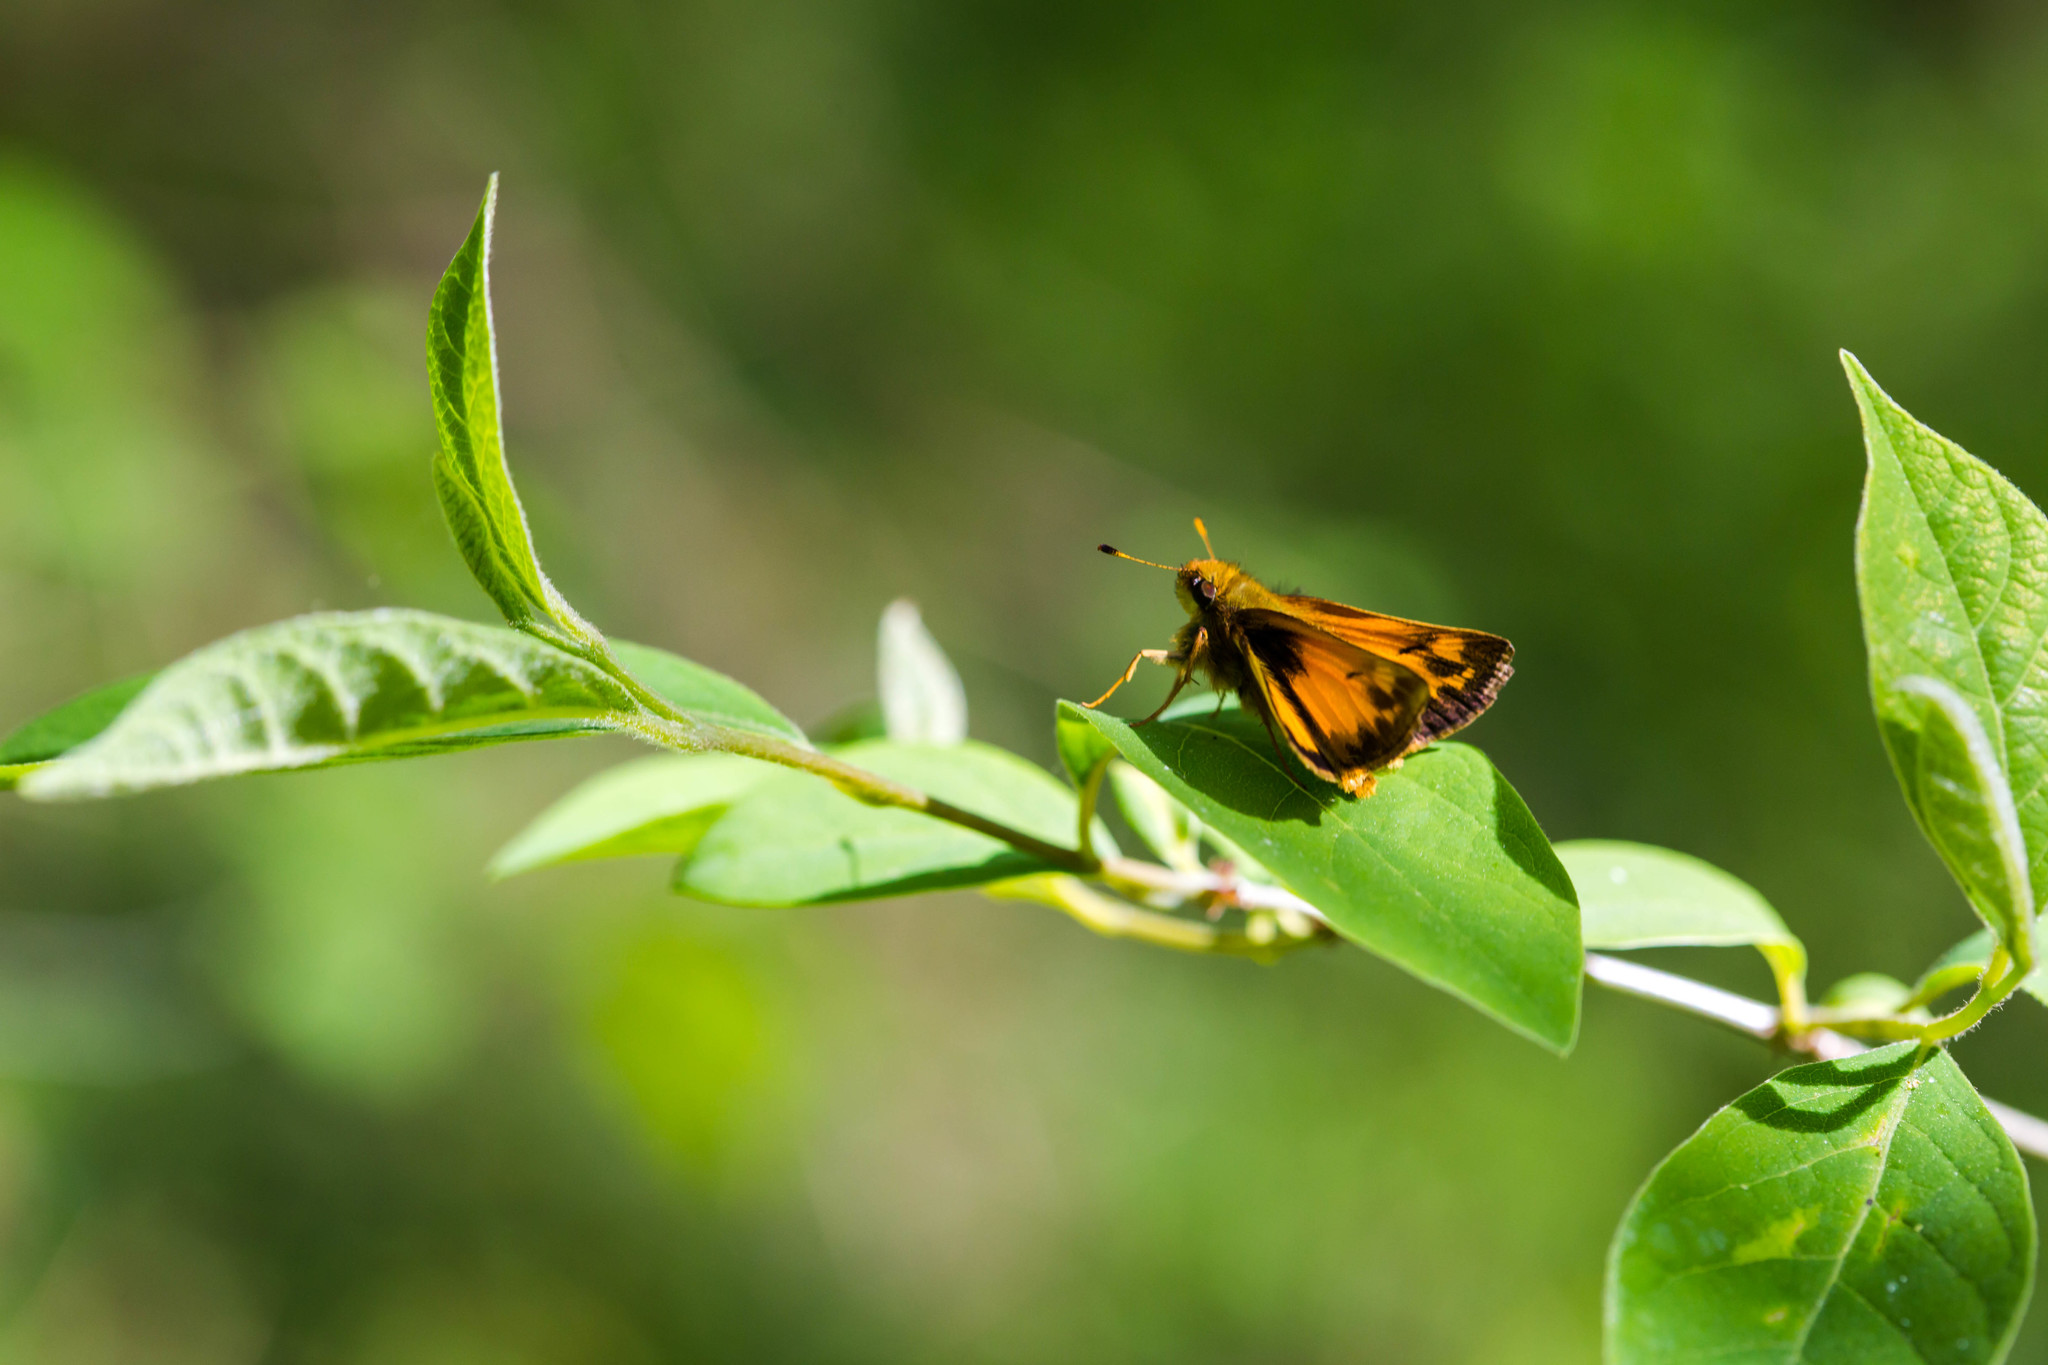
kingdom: Animalia
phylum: Arthropoda
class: Insecta
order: Lepidoptera
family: Hesperiidae
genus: Lon
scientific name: Lon zabulon
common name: Zabulon skipper
